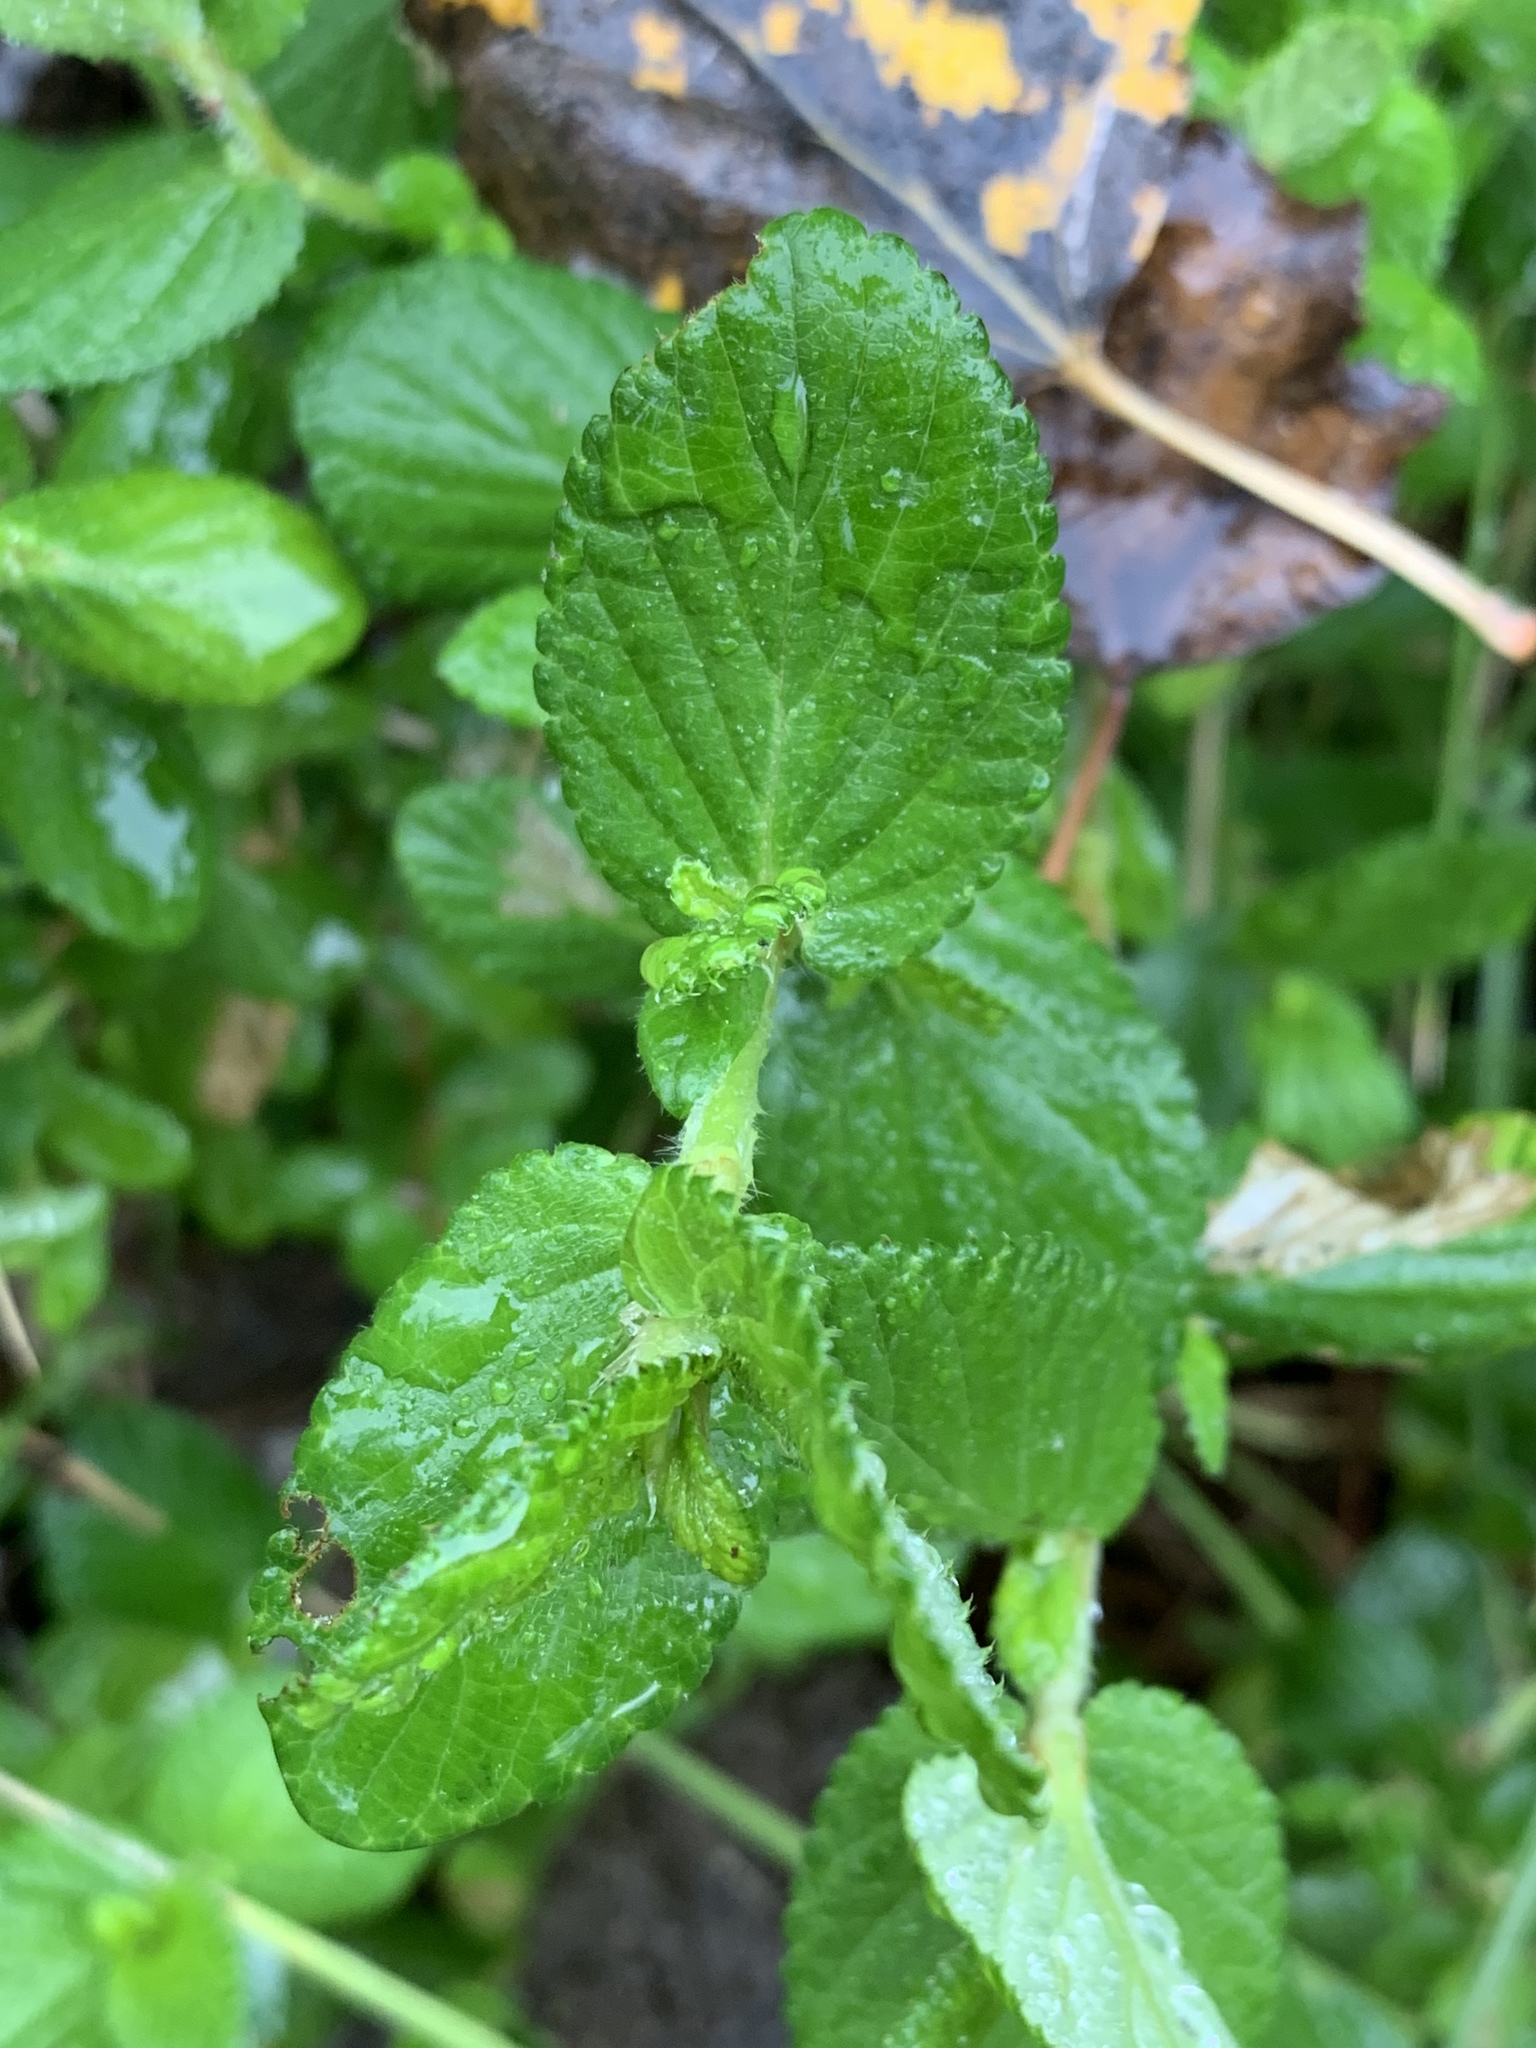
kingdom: Plantae
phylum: Tracheophyta
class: Magnoliopsida
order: Rosales
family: Rosaceae
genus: Cliffortia
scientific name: Cliffortia odorata
